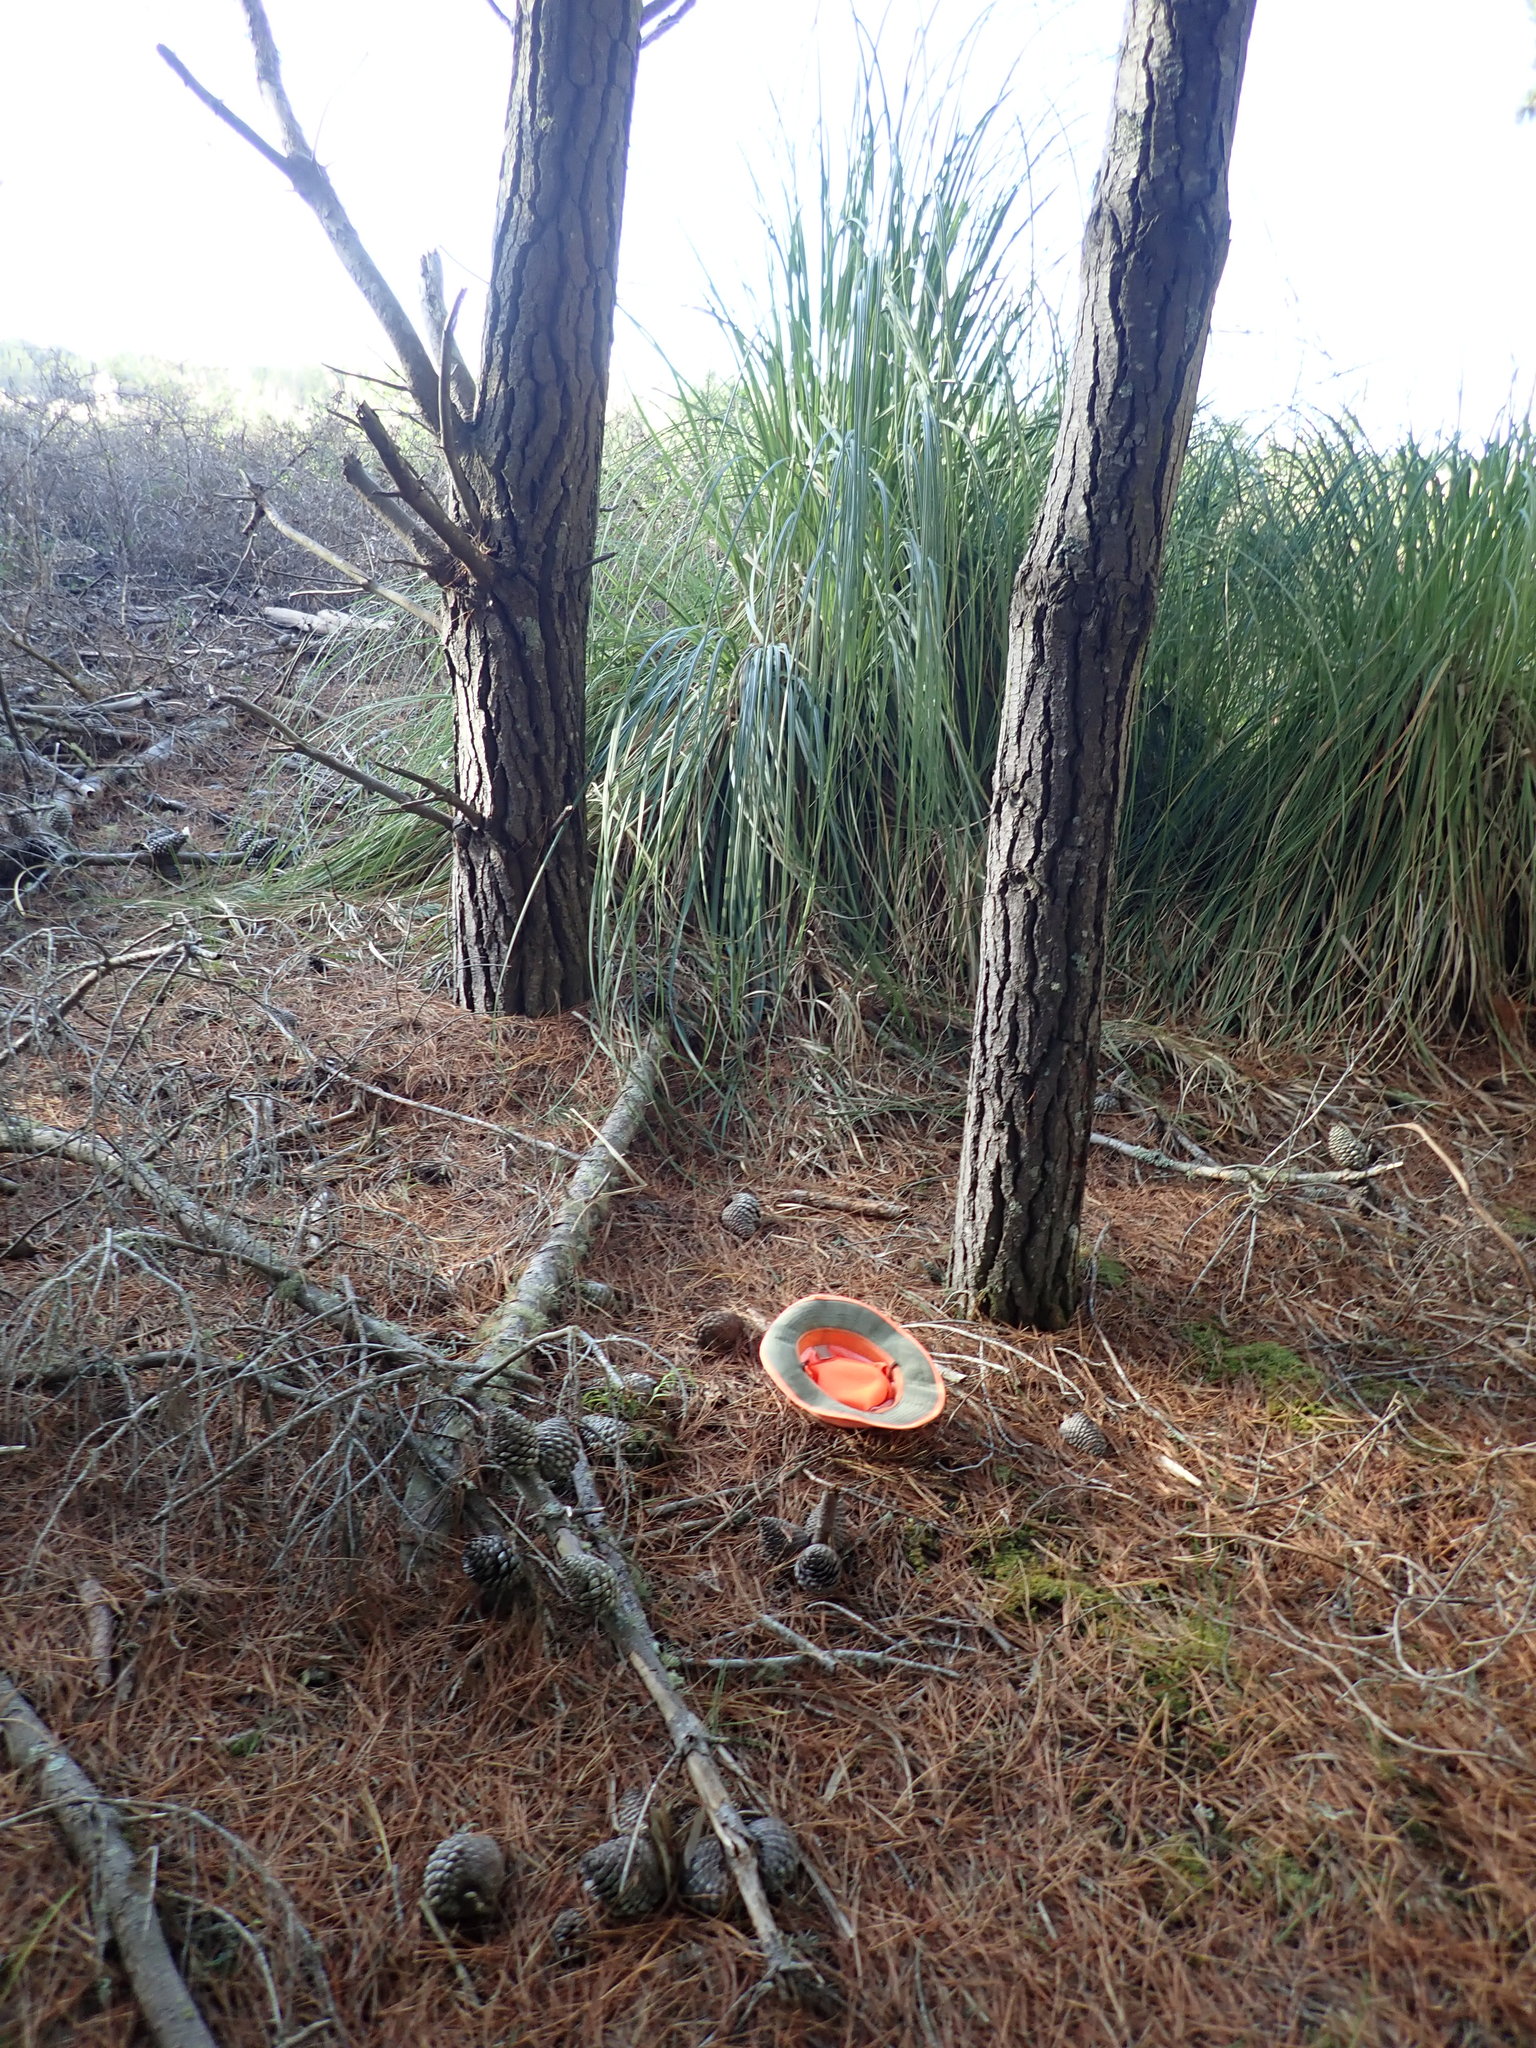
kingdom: Plantae
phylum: Tracheophyta
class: Polypodiopsida
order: Polypodiales
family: Aspleniaceae
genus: Asplenium
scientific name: Asplenium flaccidum
